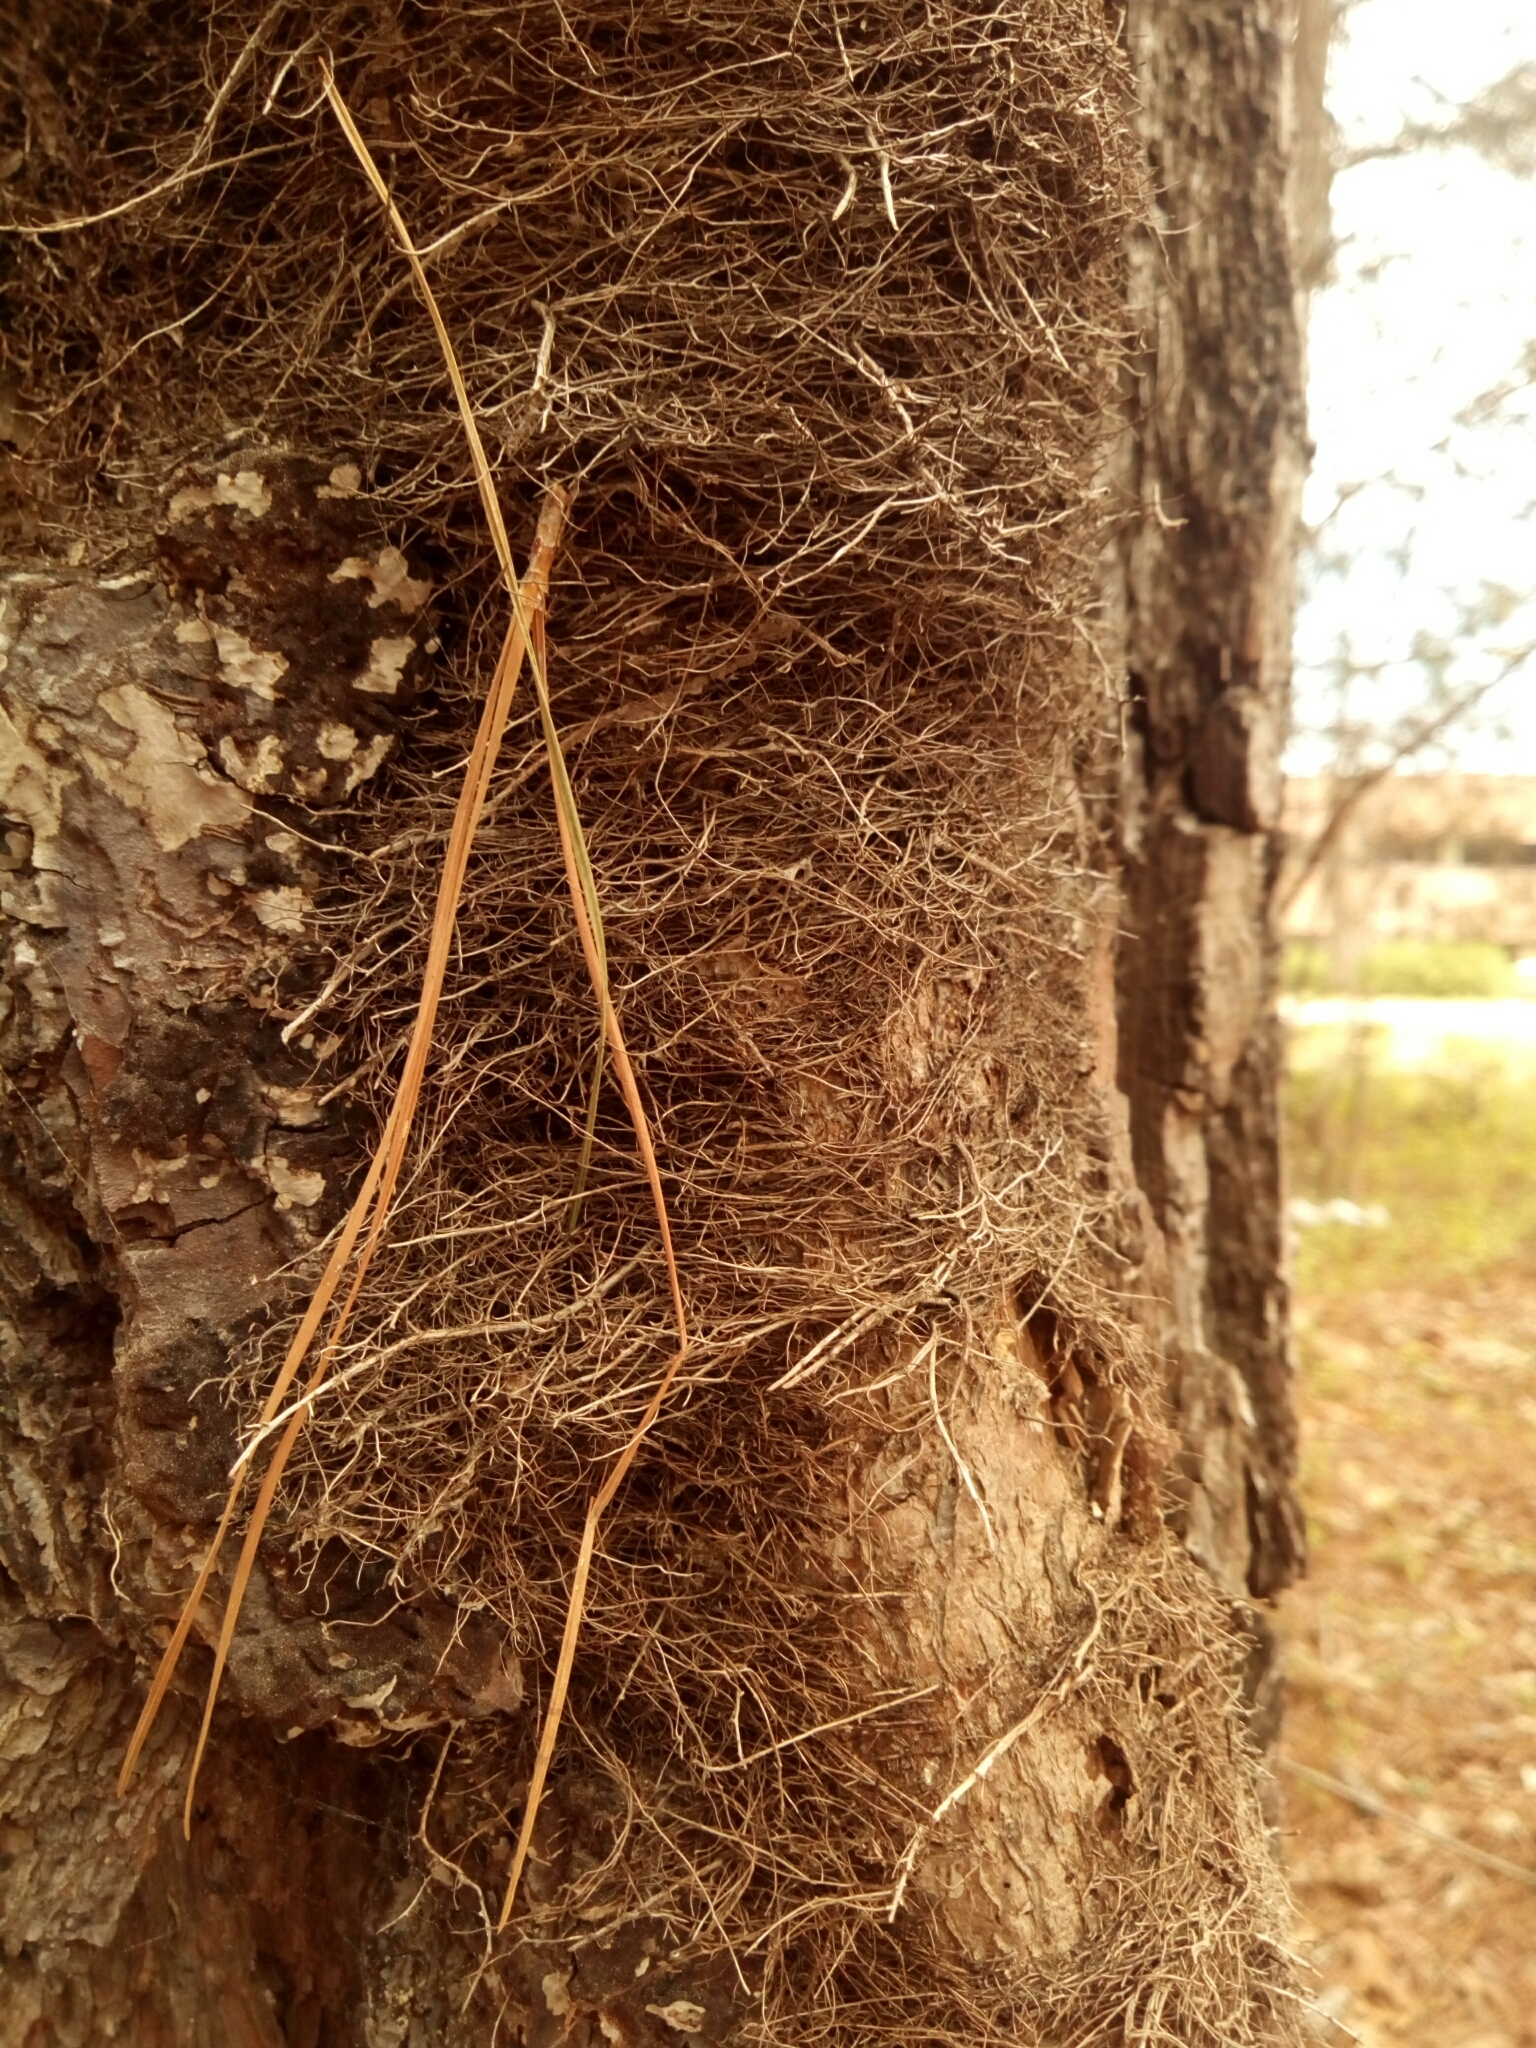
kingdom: Plantae
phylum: Tracheophyta
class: Magnoliopsida
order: Sapindales
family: Anacardiaceae
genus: Toxicodendron
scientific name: Toxicodendron radicans
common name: Poison ivy
